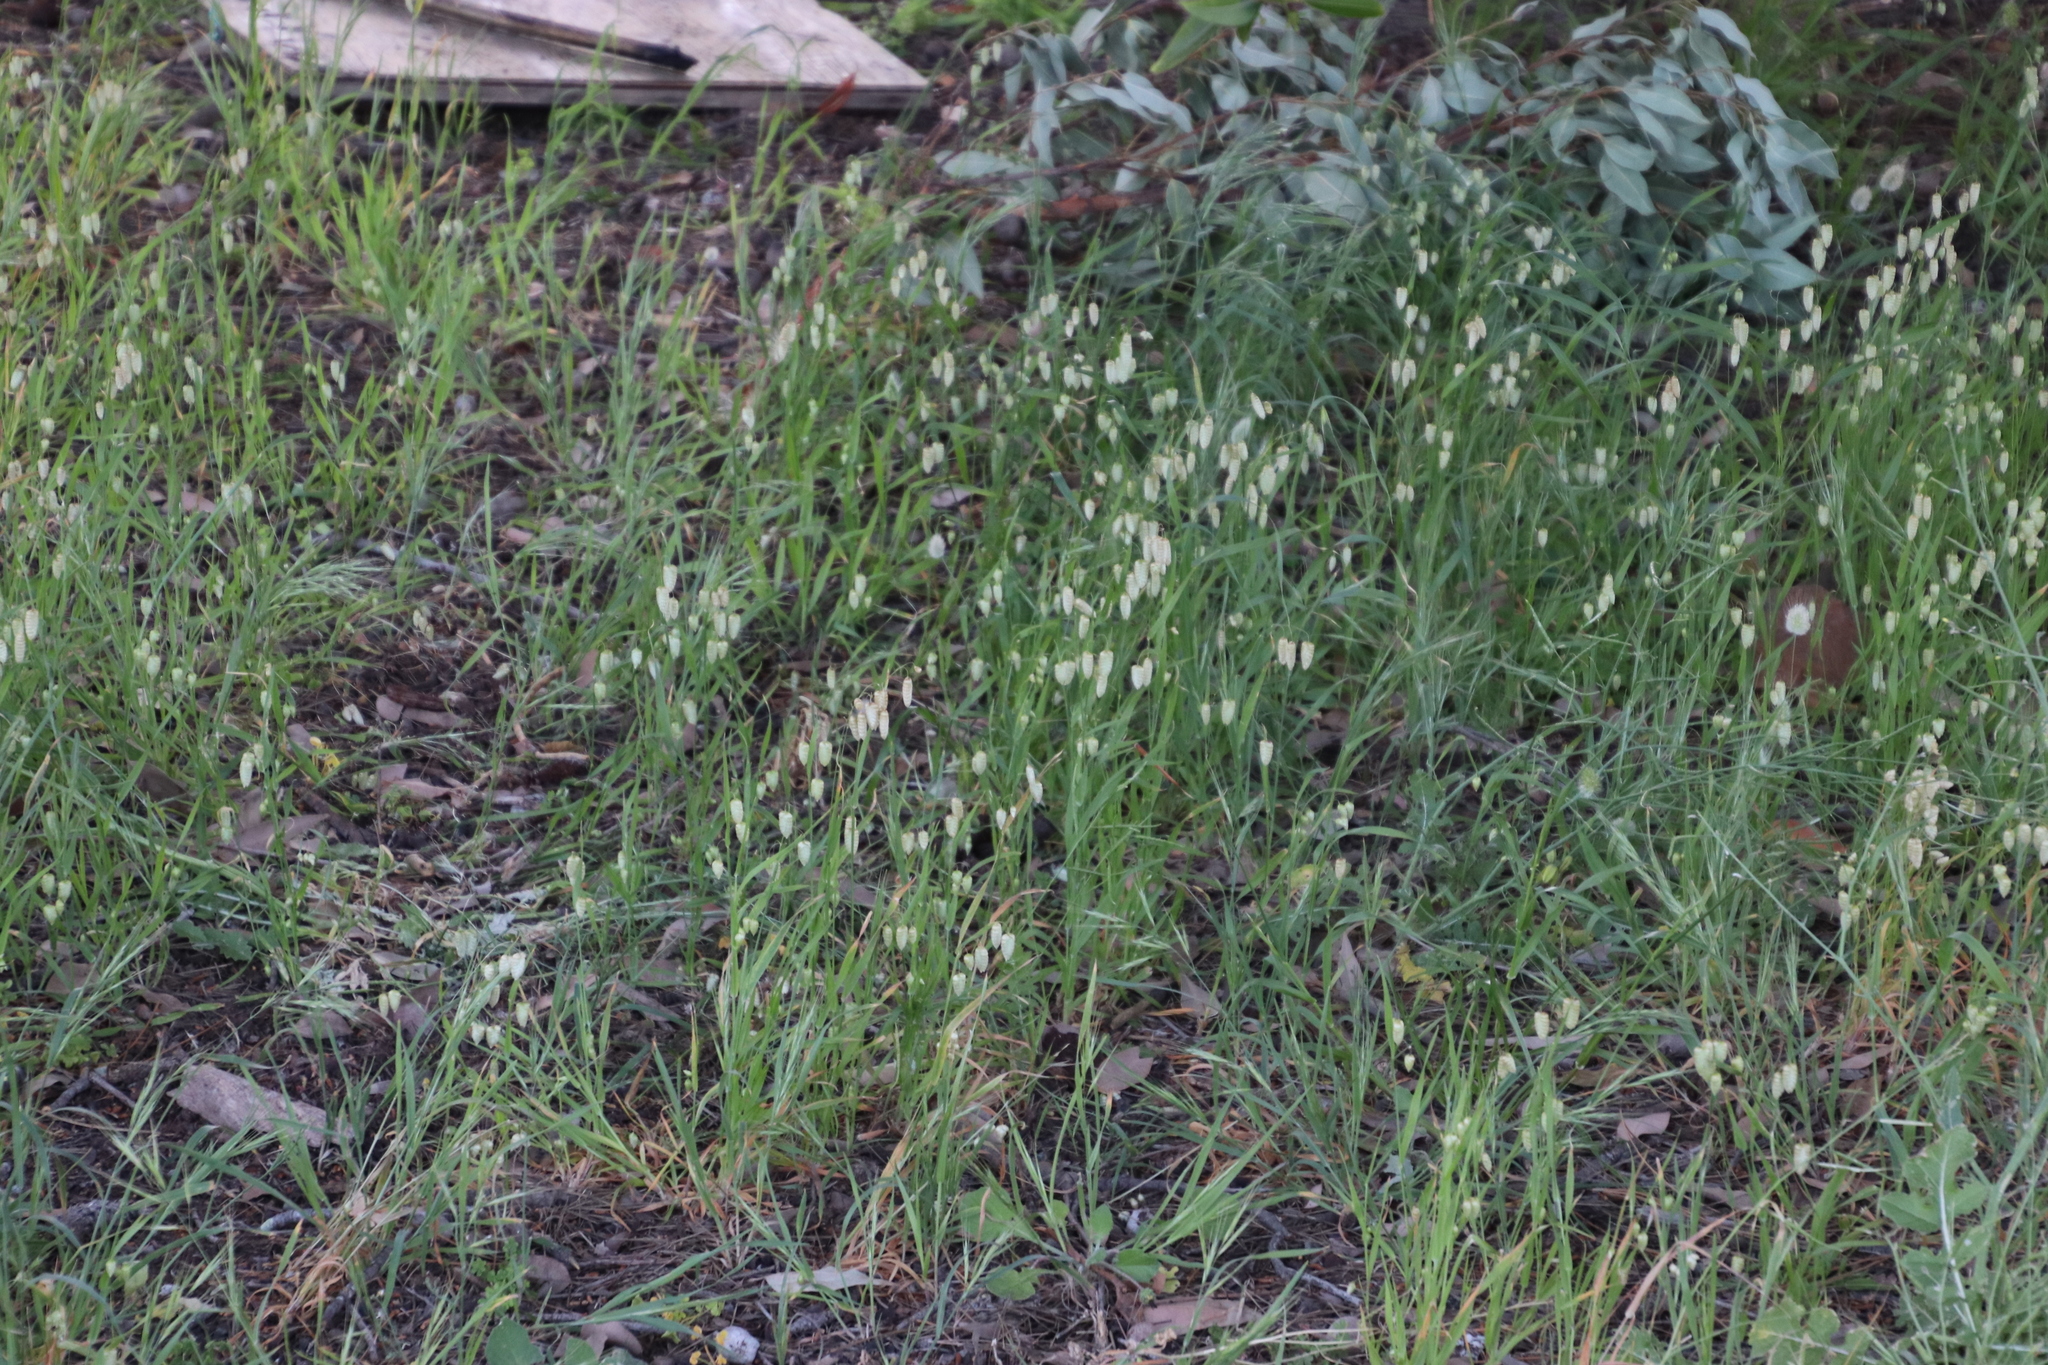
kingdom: Plantae
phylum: Tracheophyta
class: Liliopsida
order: Poales
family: Poaceae
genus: Briza
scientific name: Briza maxima
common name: Big quakinggrass
